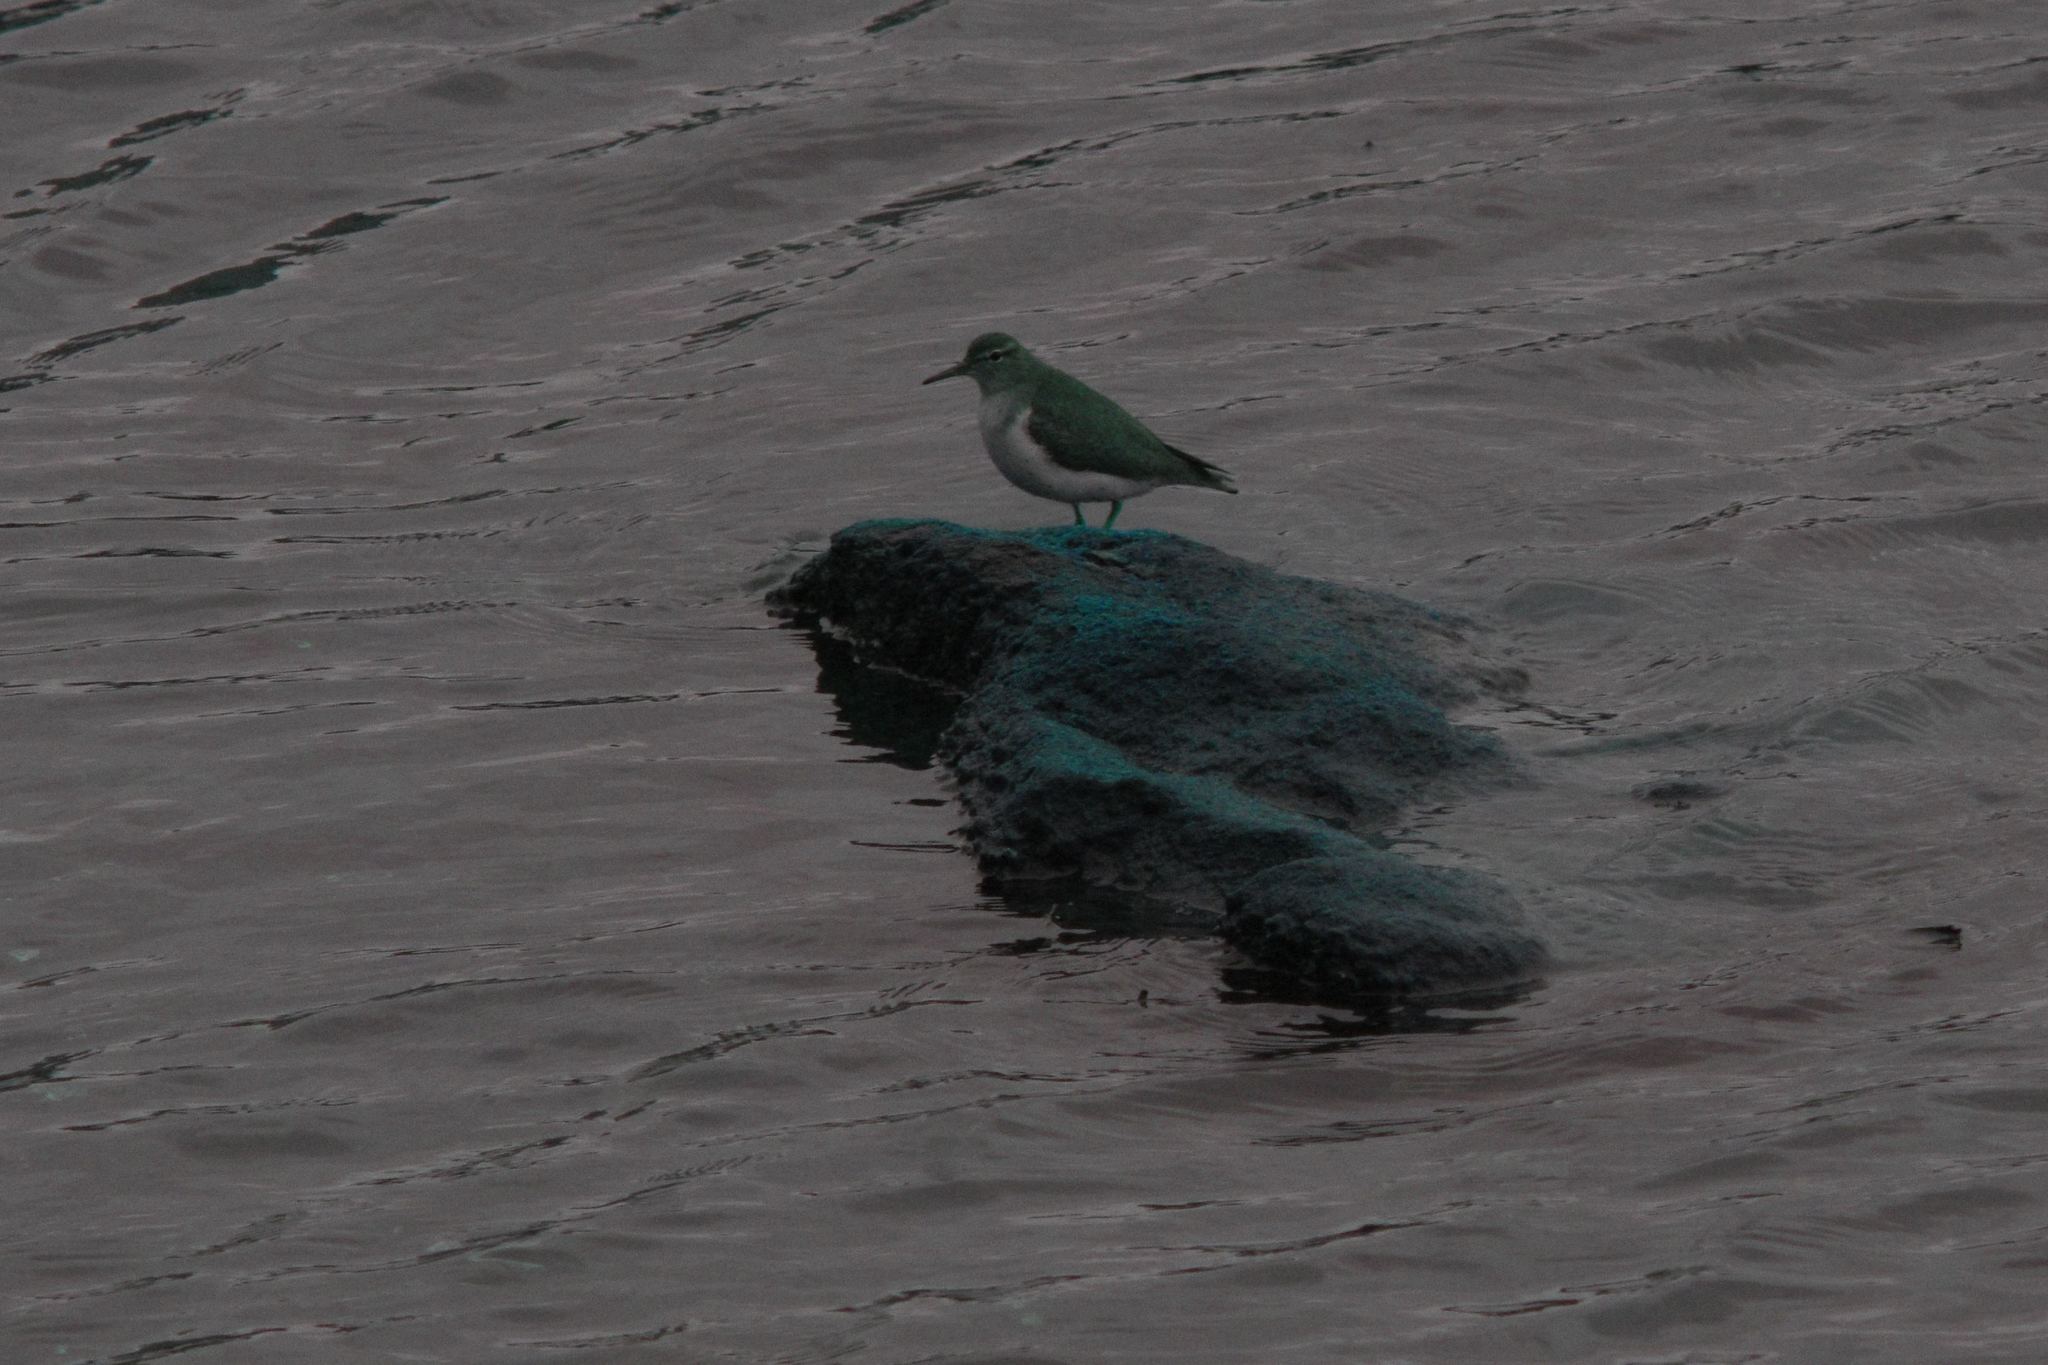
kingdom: Animalia
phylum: Chordata
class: Aves
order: Charadriiformes
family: Scolopacidae
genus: Actitis
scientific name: Actitis macularius
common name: Spotted sandpiper
